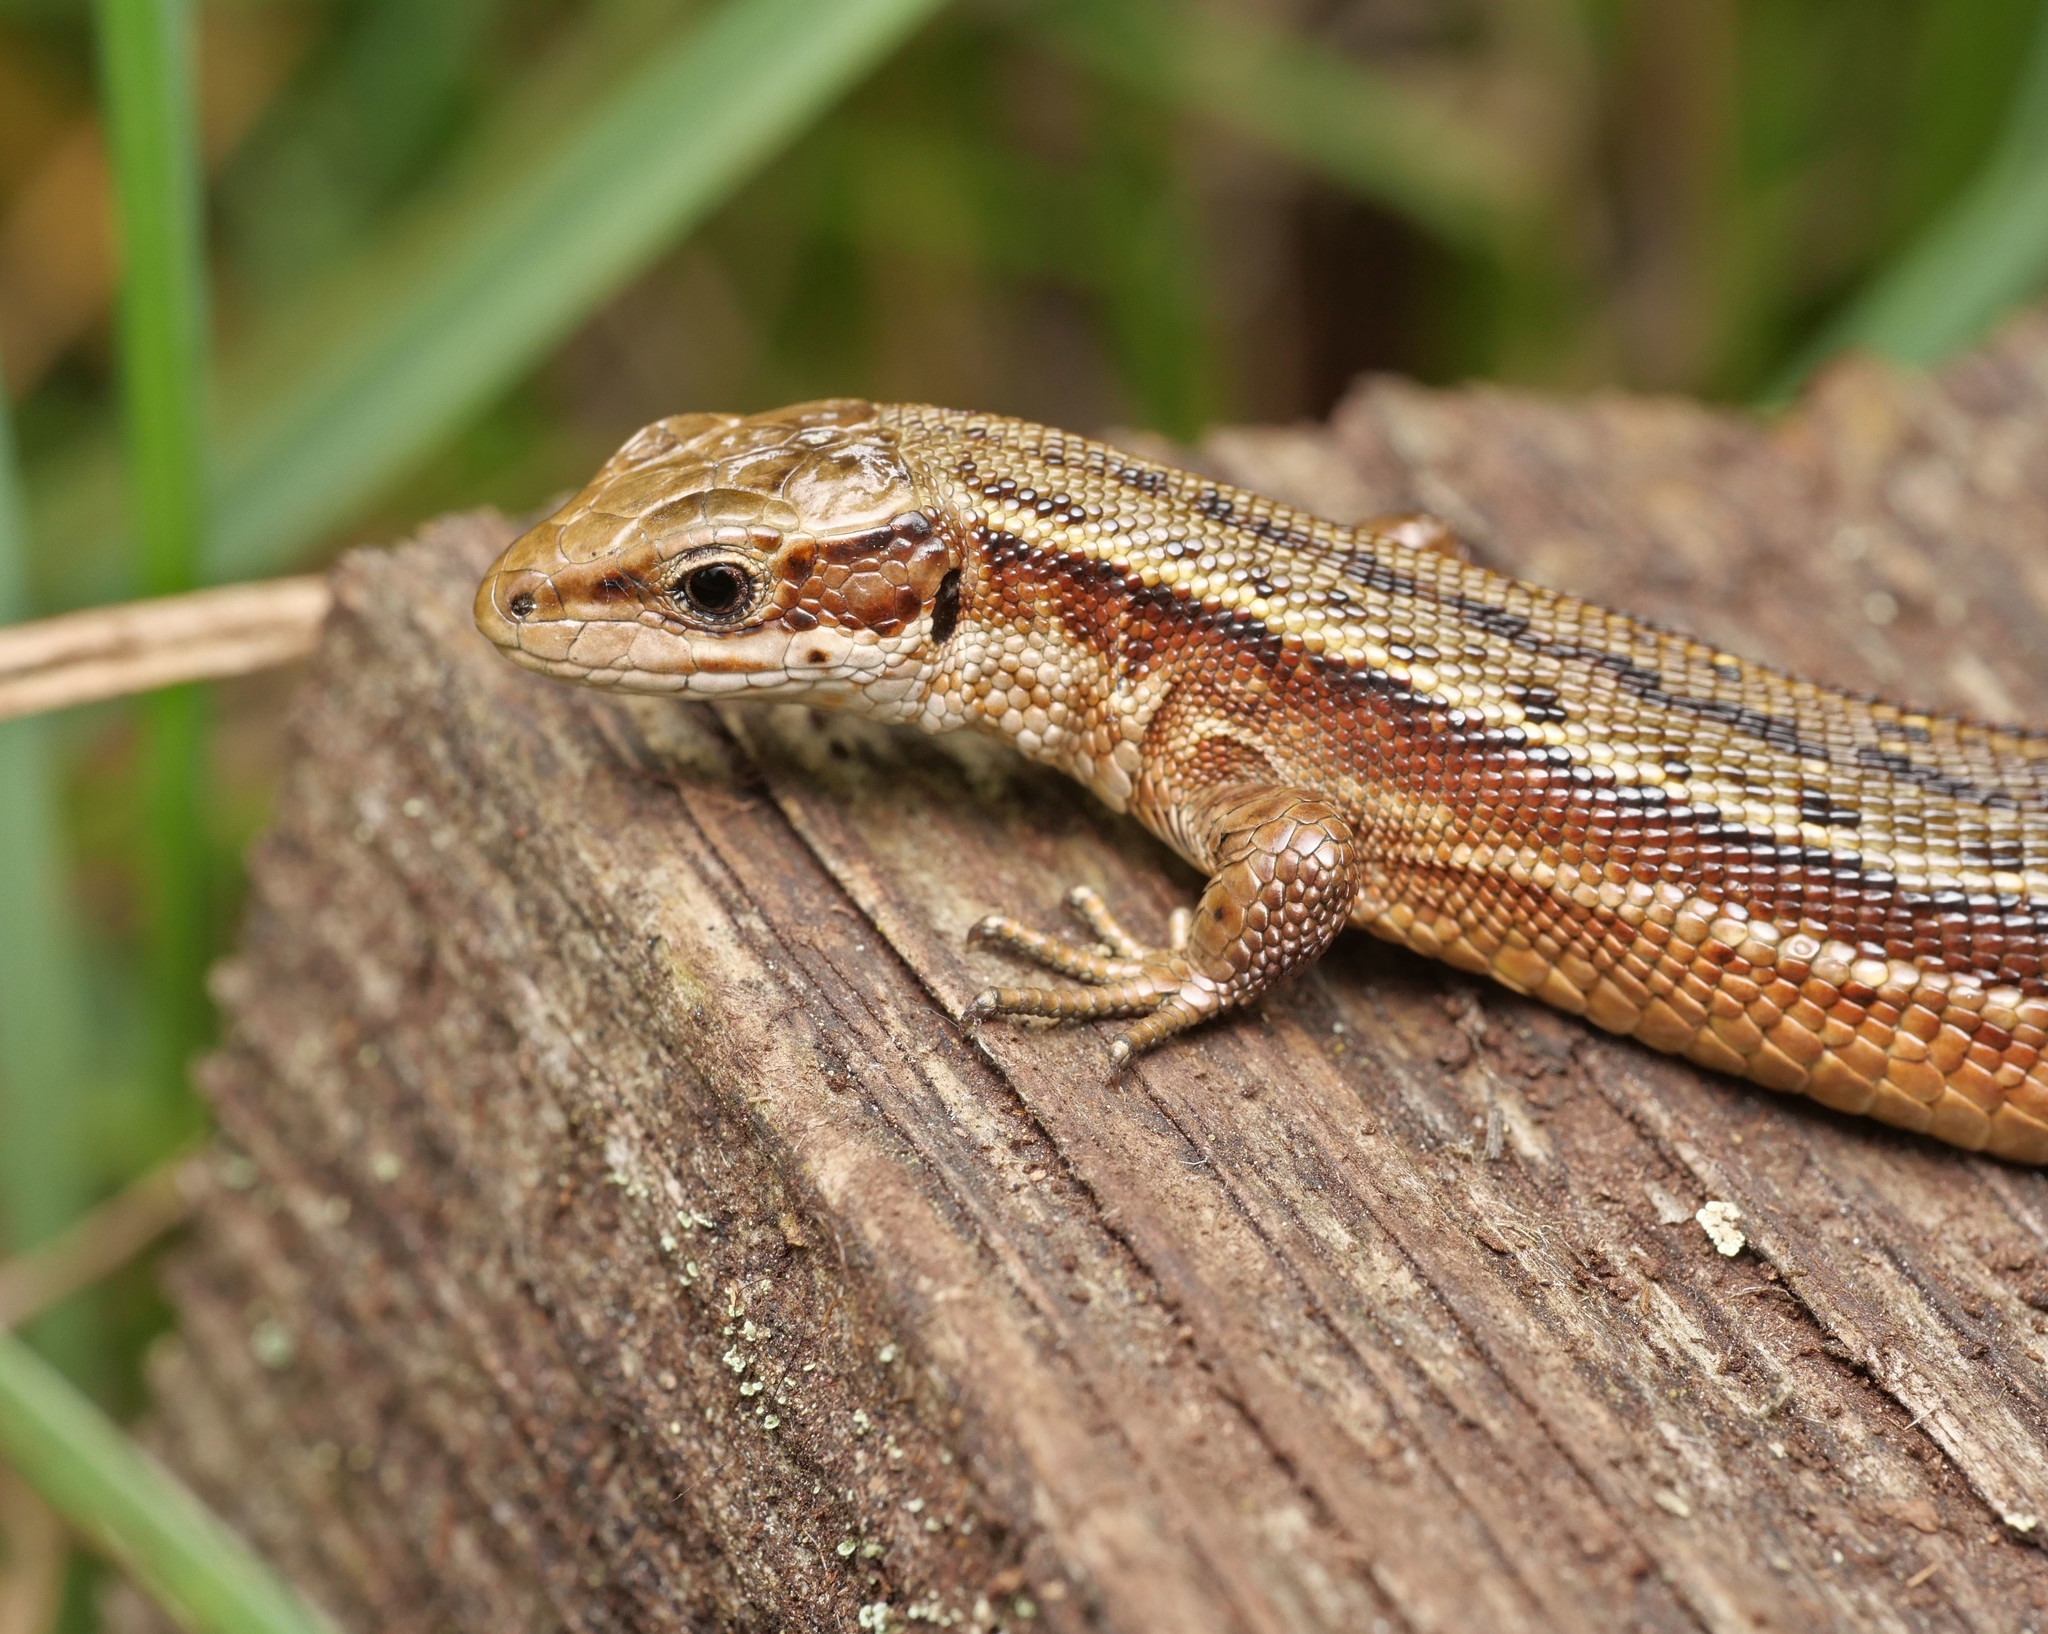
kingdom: Animalia
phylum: Chordata
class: Squamata
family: Lacertidae
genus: Zootoca
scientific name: Zootoca vivipara
